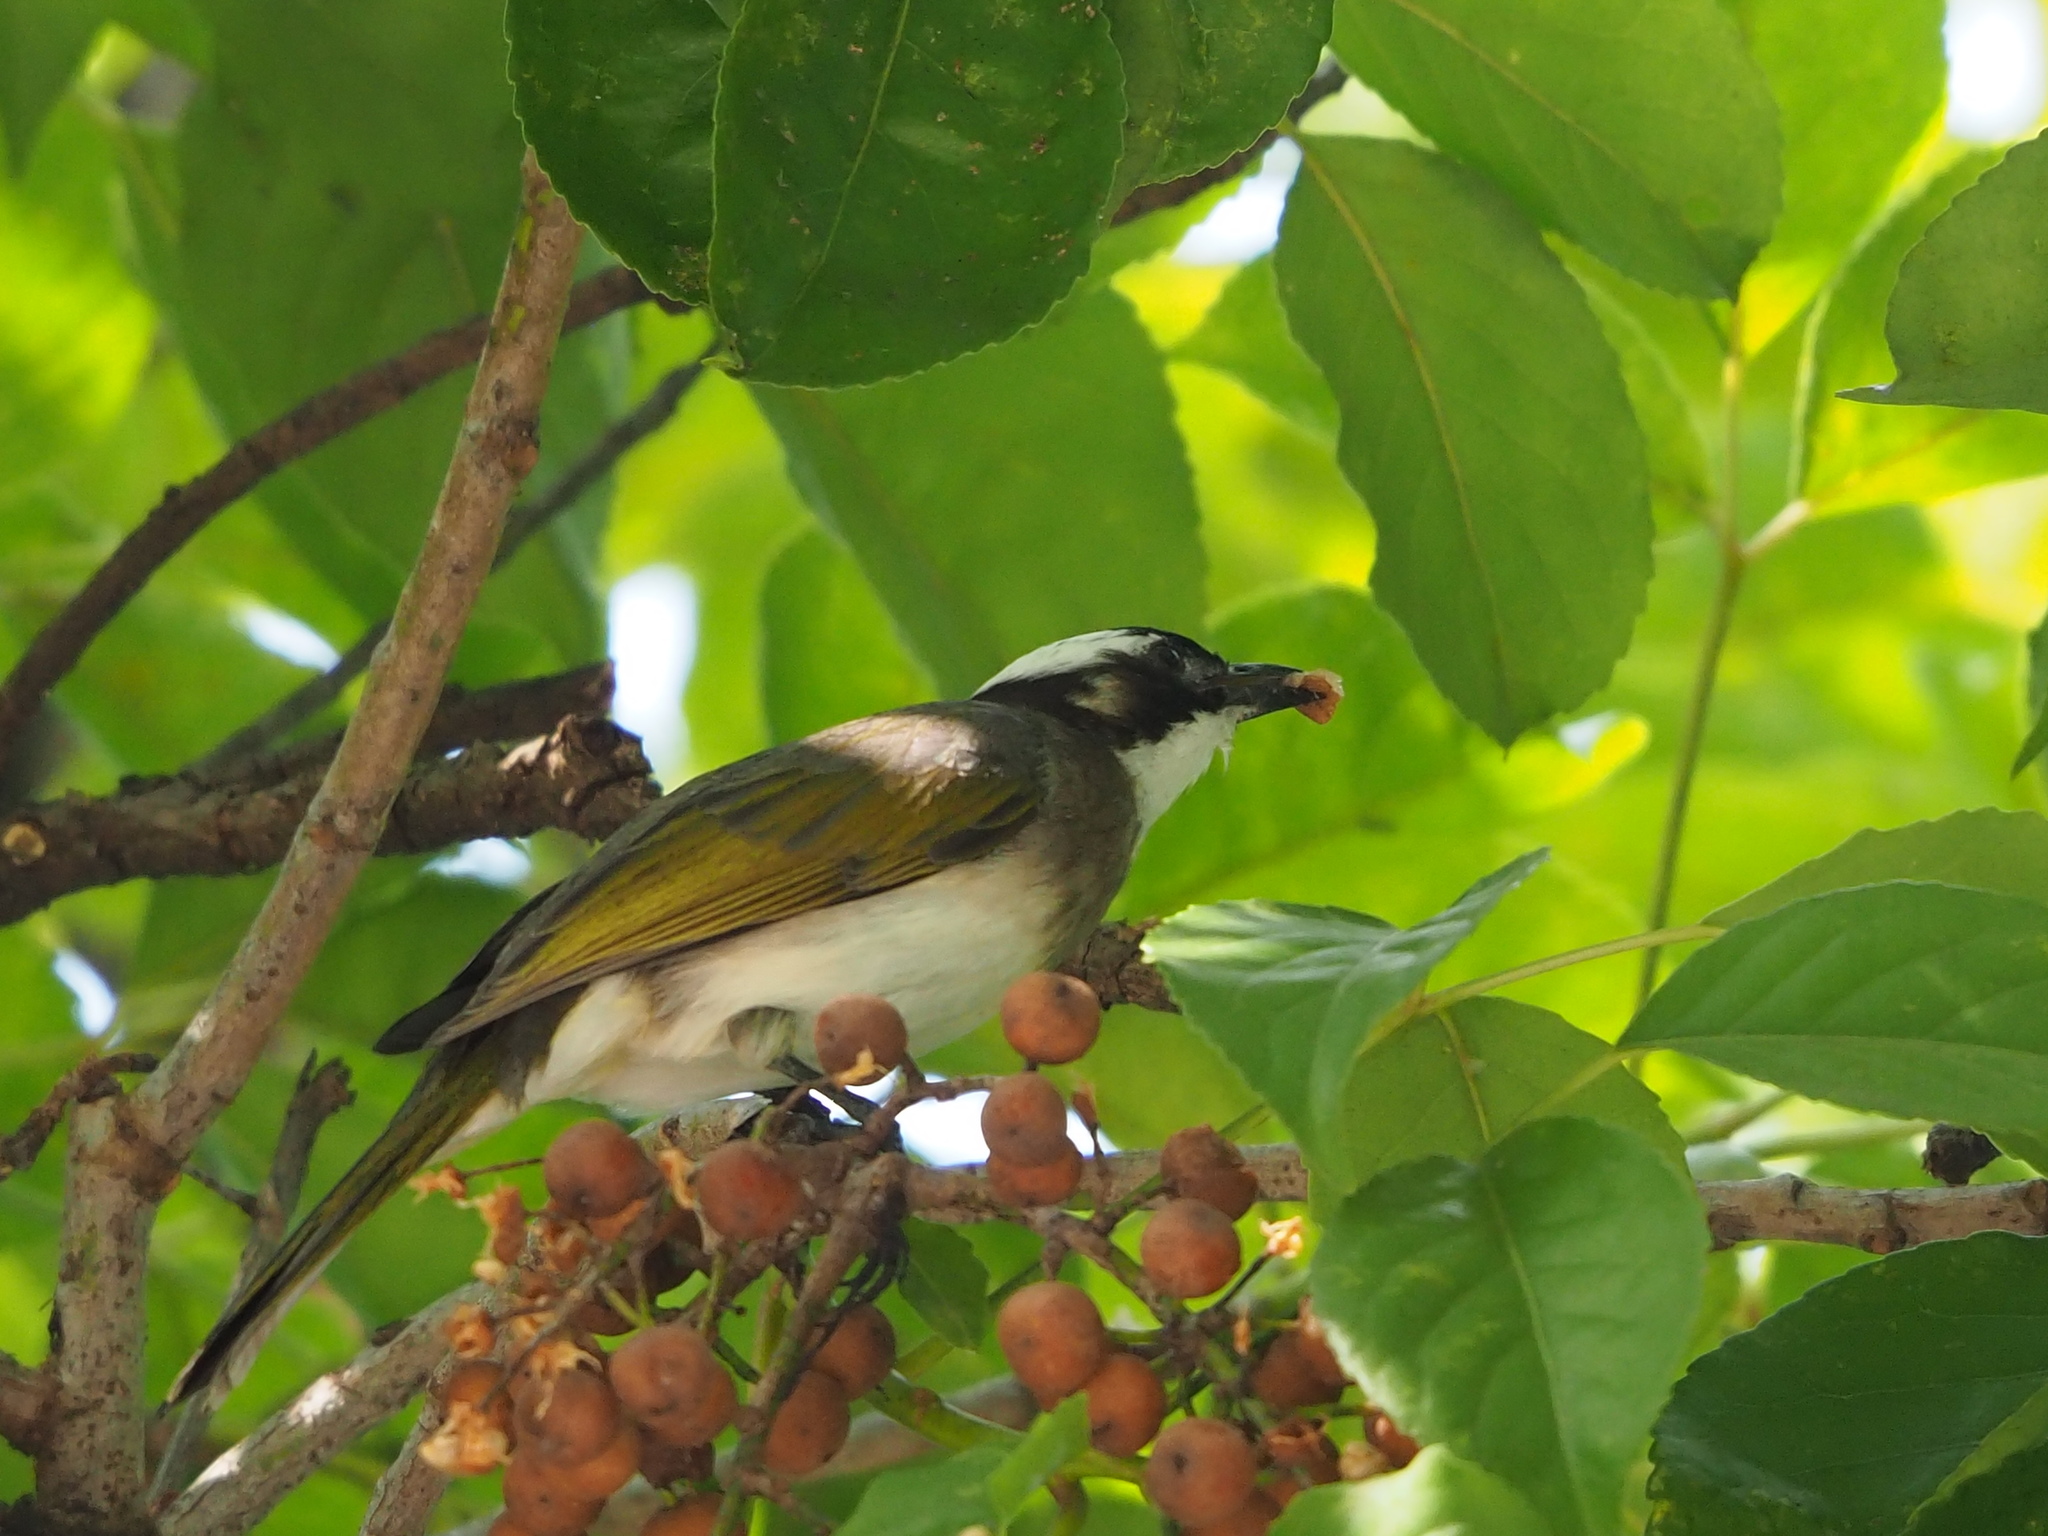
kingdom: Animalia
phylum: Chordata
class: Aves
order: Passeriformes
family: Pycnonotidae
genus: Pycnonotus
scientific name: Pycnonotus sinensis
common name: Light-vented bulbul
